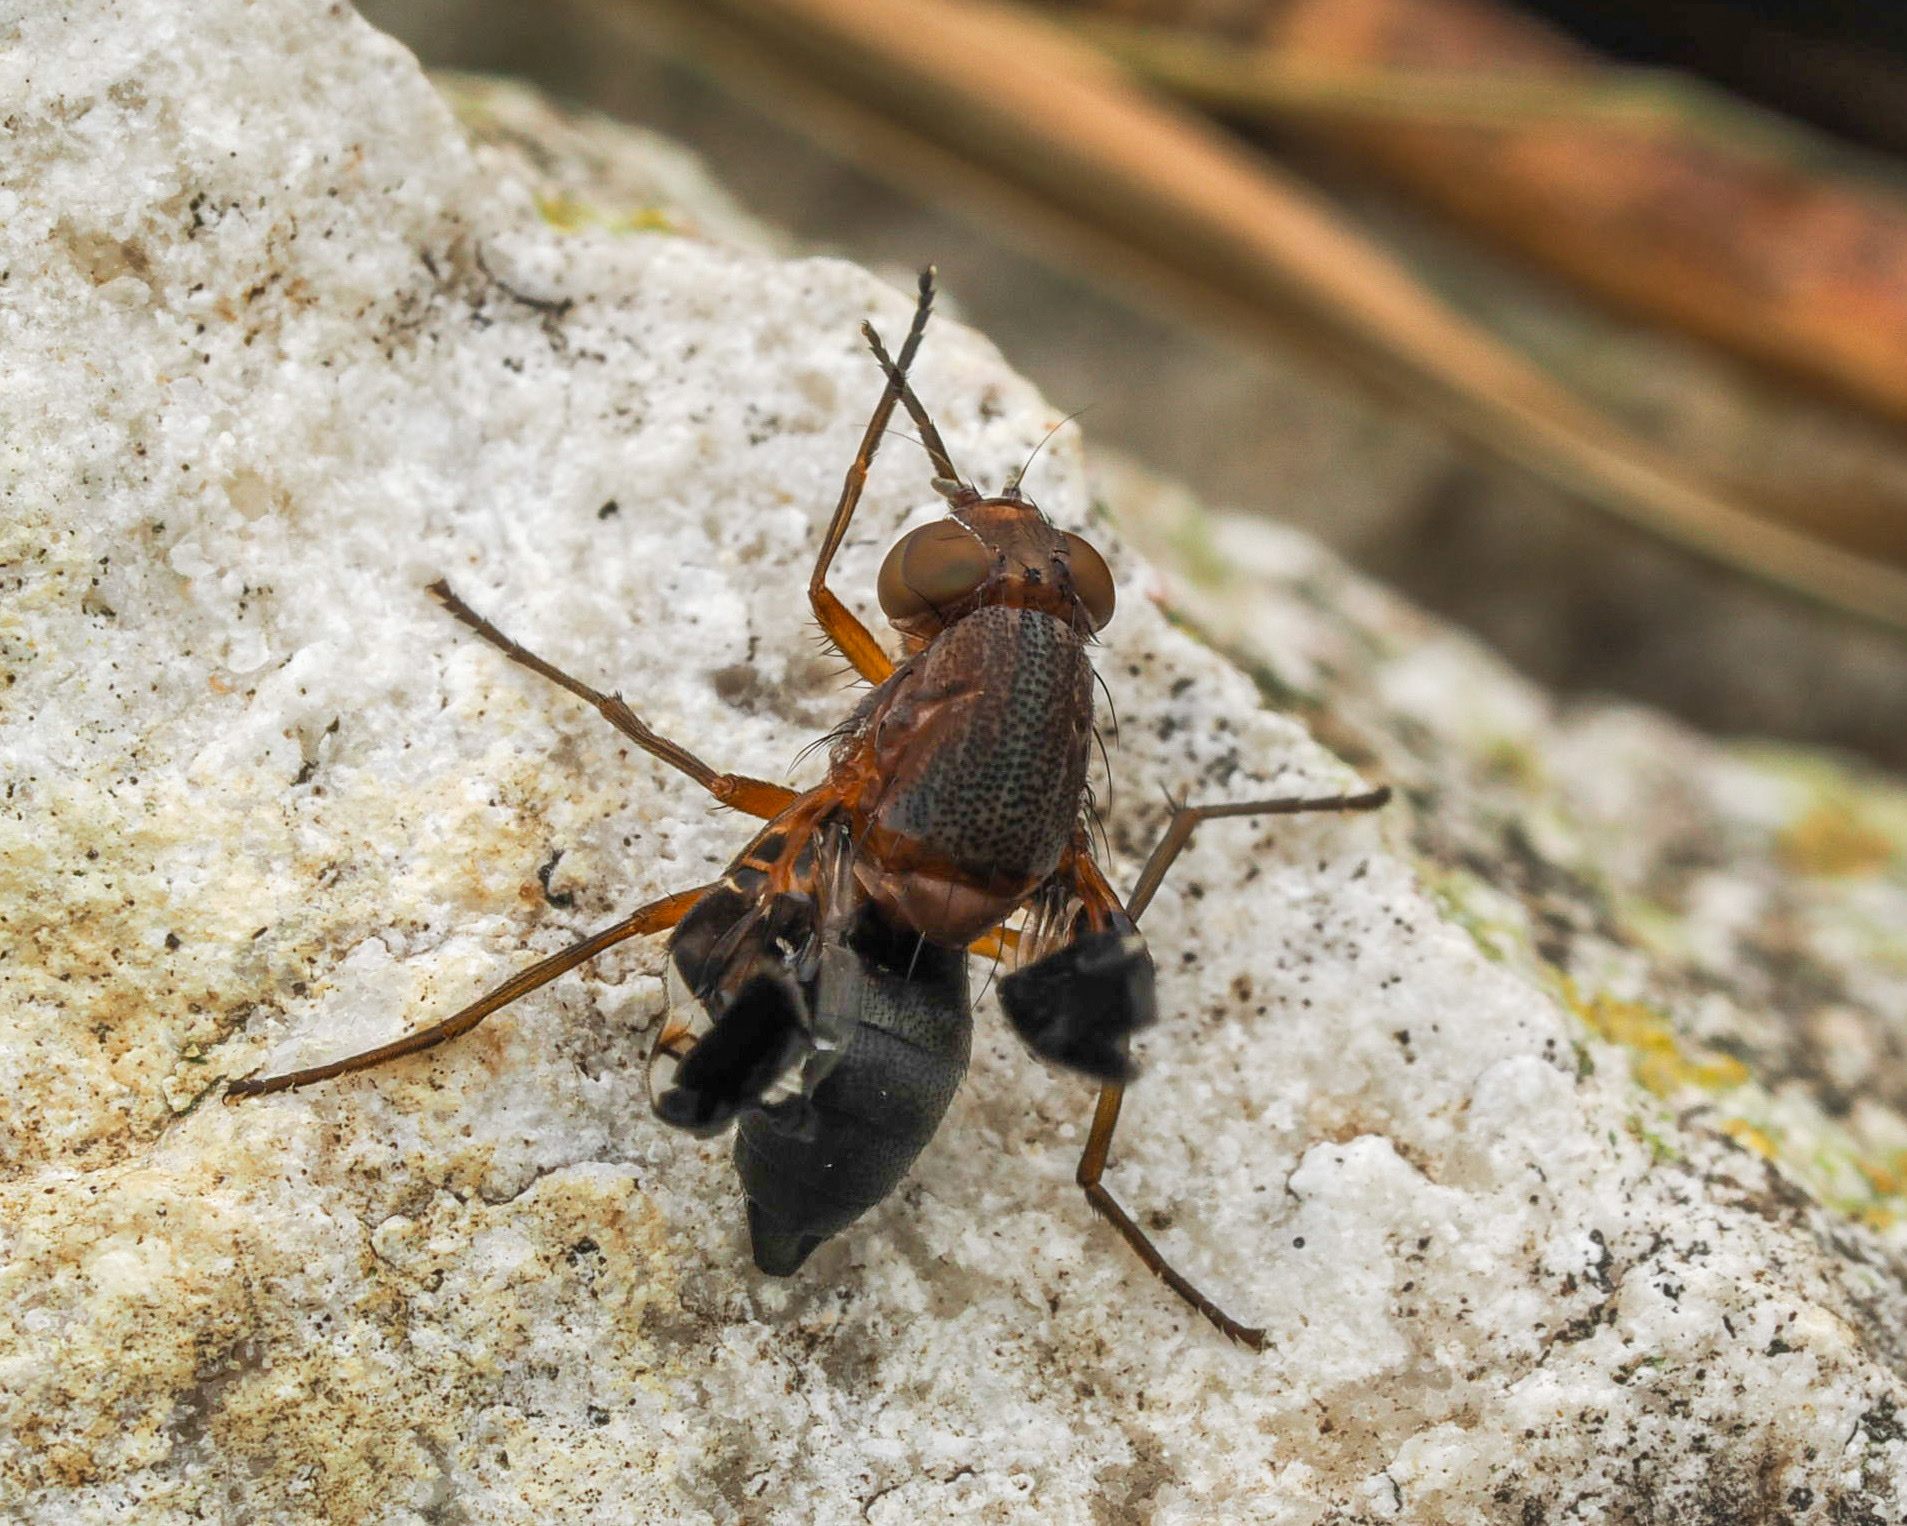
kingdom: Animalia
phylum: Arthropoda
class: Insecta
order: Diptera
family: Ulidiidae
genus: Delphinia
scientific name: Delphinia picta
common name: Common picture-winged fly
